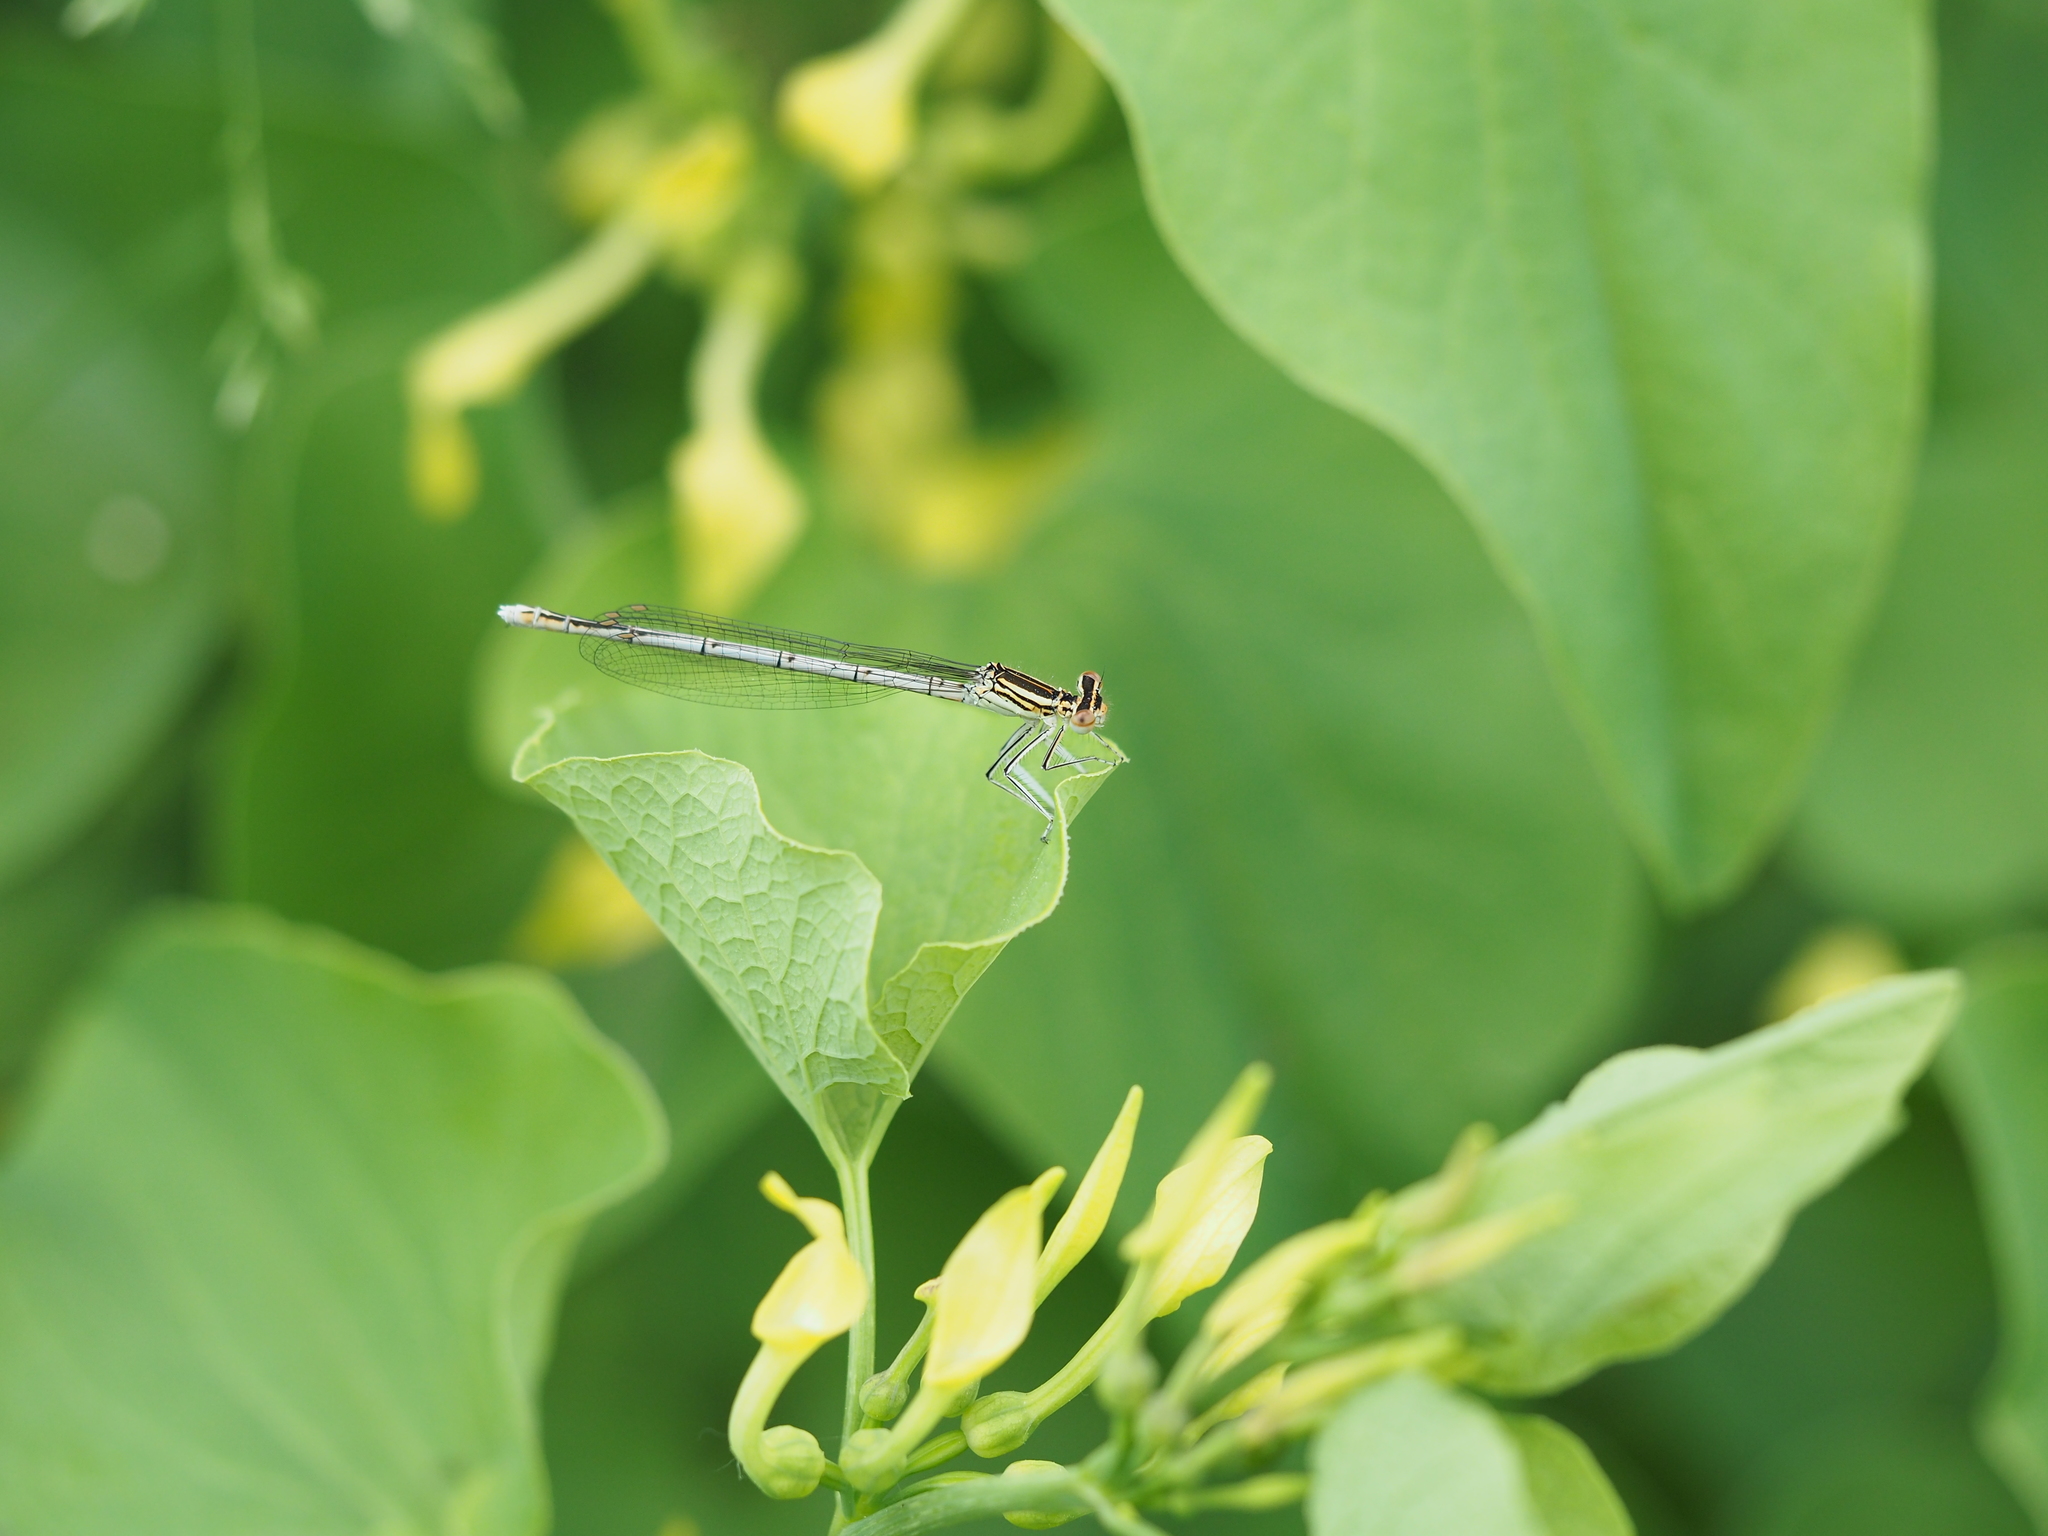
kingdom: Animalia
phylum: Arthropoda
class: Insecta
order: Odonata
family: Platycnemididae
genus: Platycnemis
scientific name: Platycnemis pennipes
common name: White-legged damselfly
